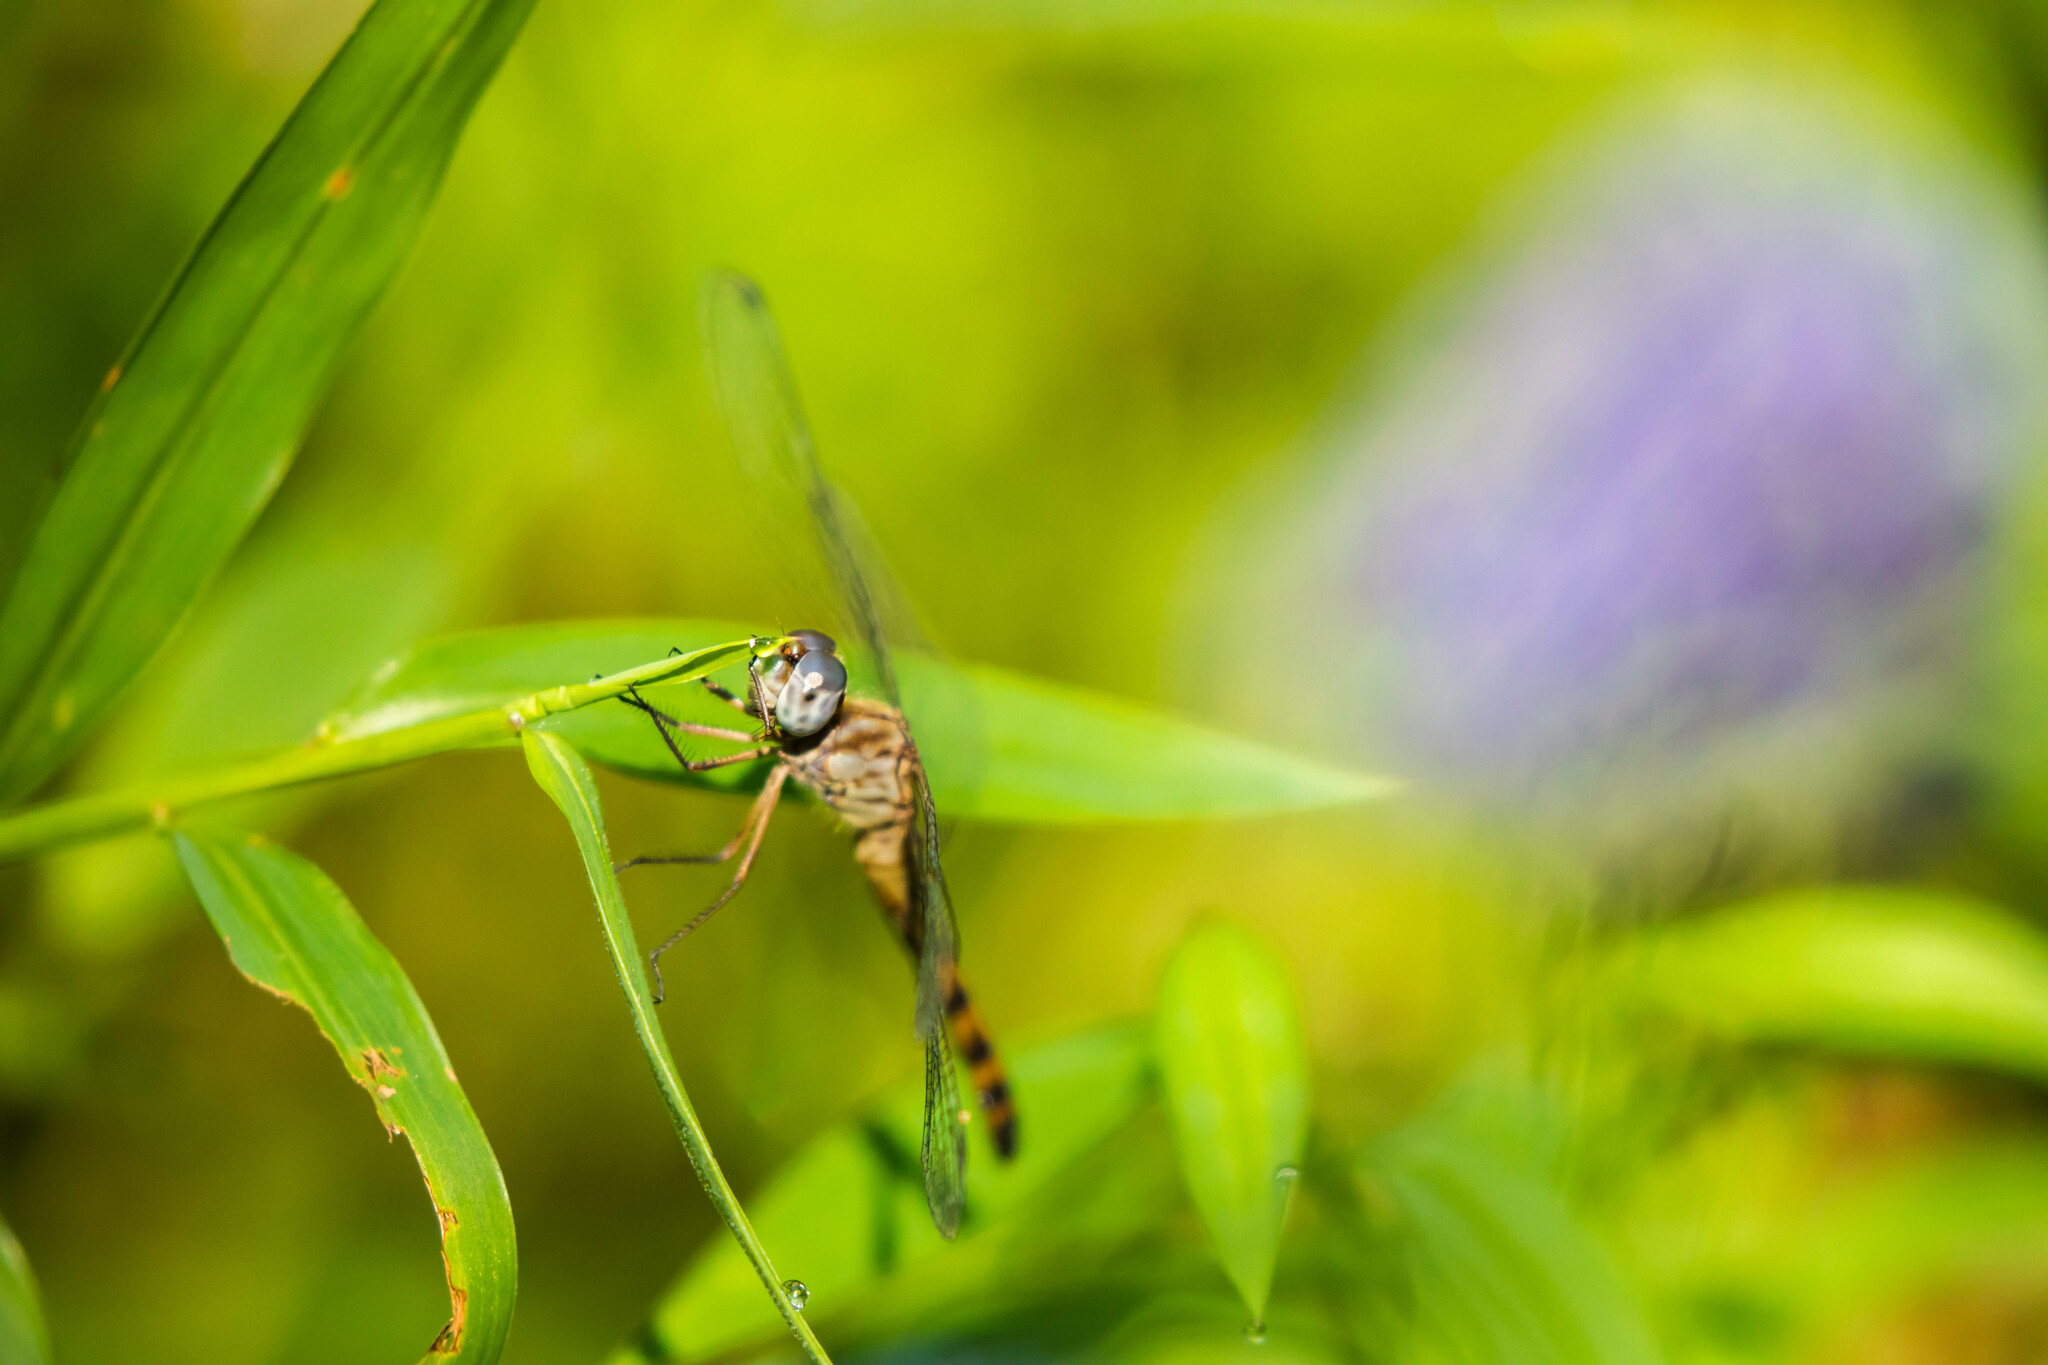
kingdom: Animalia
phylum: Arthropoda
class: Insecta
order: Odonata
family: Libellulidae
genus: Sympetrum
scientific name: Sympetrum ambiguum
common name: Blue-faced meadowhawk
